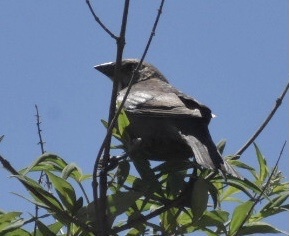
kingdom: Animalia
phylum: Chordata
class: Aves
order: Passeriformes
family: Icteridae
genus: Molothrus
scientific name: Molothrus ater
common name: Brown-headed cowbird
